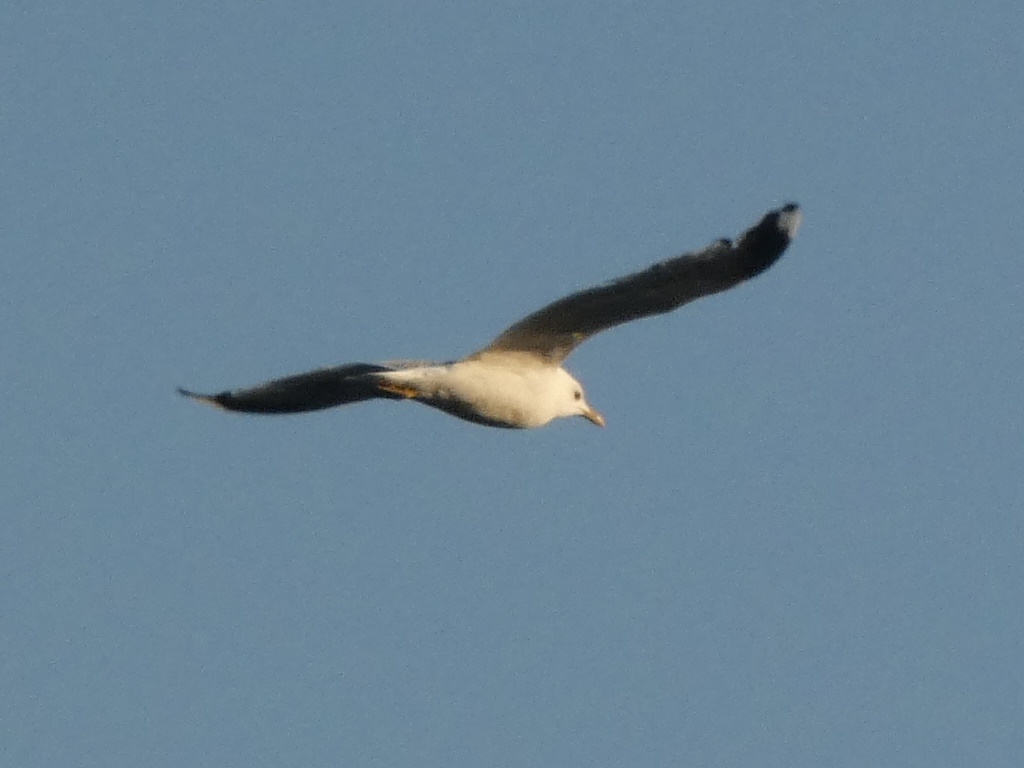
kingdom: Animalia
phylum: Chordata
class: Aves
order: Charadriiformes
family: Laridae
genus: Larus
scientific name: Larus canus
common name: Mew gull
